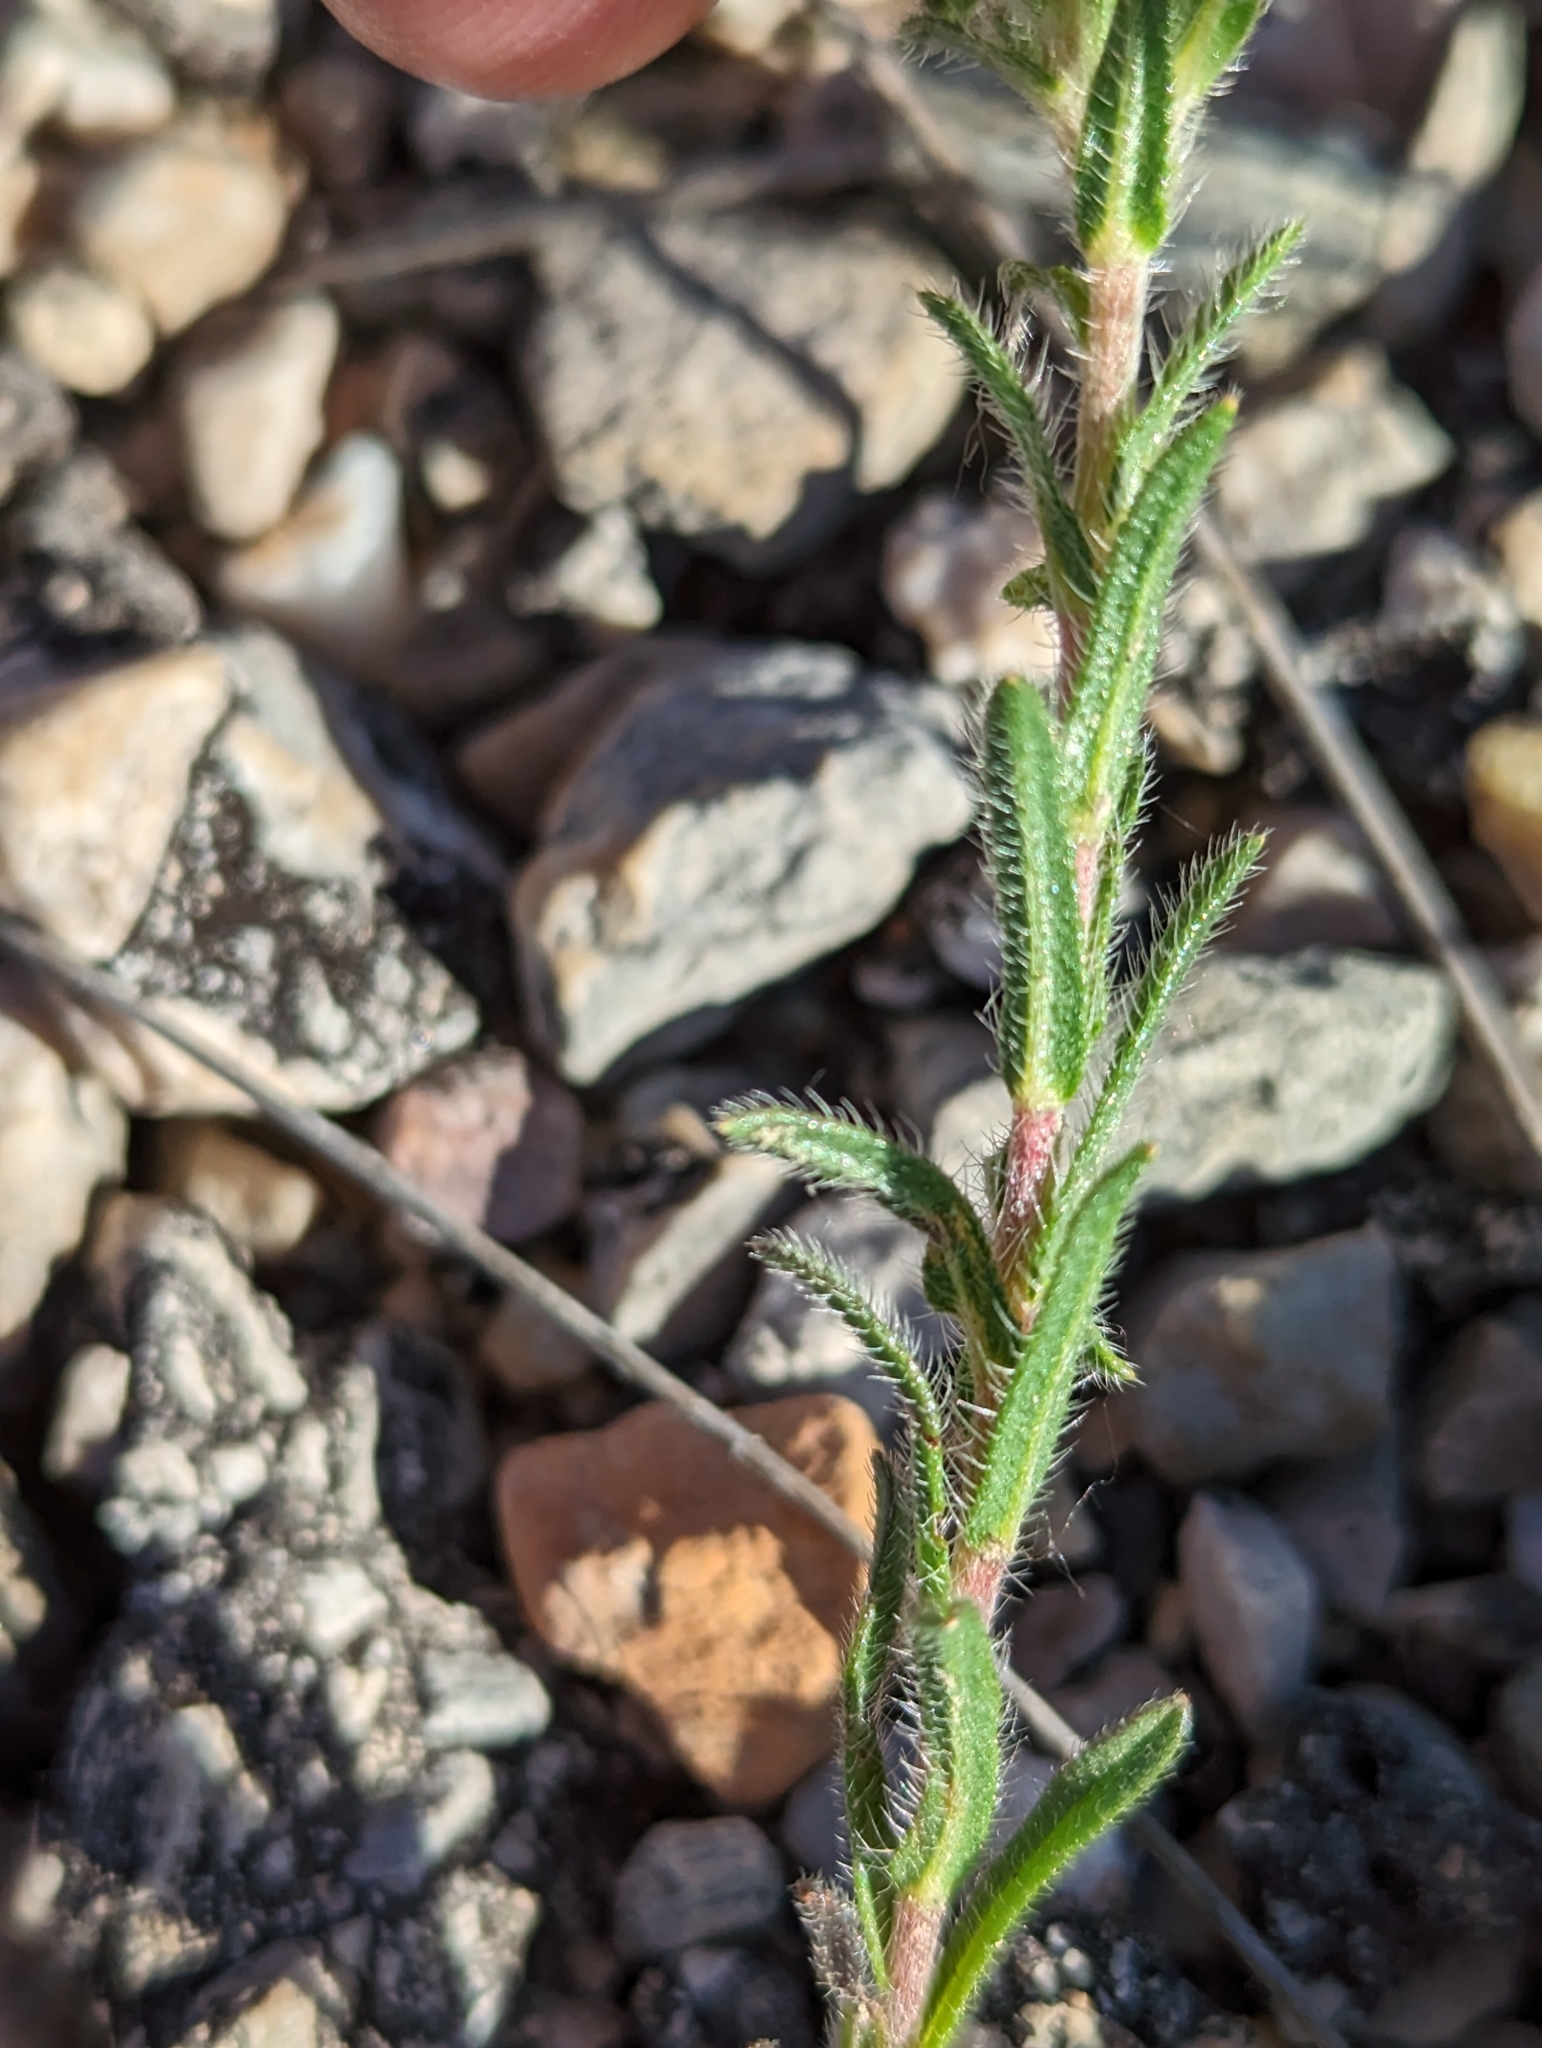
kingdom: Plantae
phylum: Tracheophyta
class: Magnoliopsida
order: Boraginales
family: Boraginaceae
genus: Neatostema
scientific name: Neatostema apulum
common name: Hairy sheepweed
